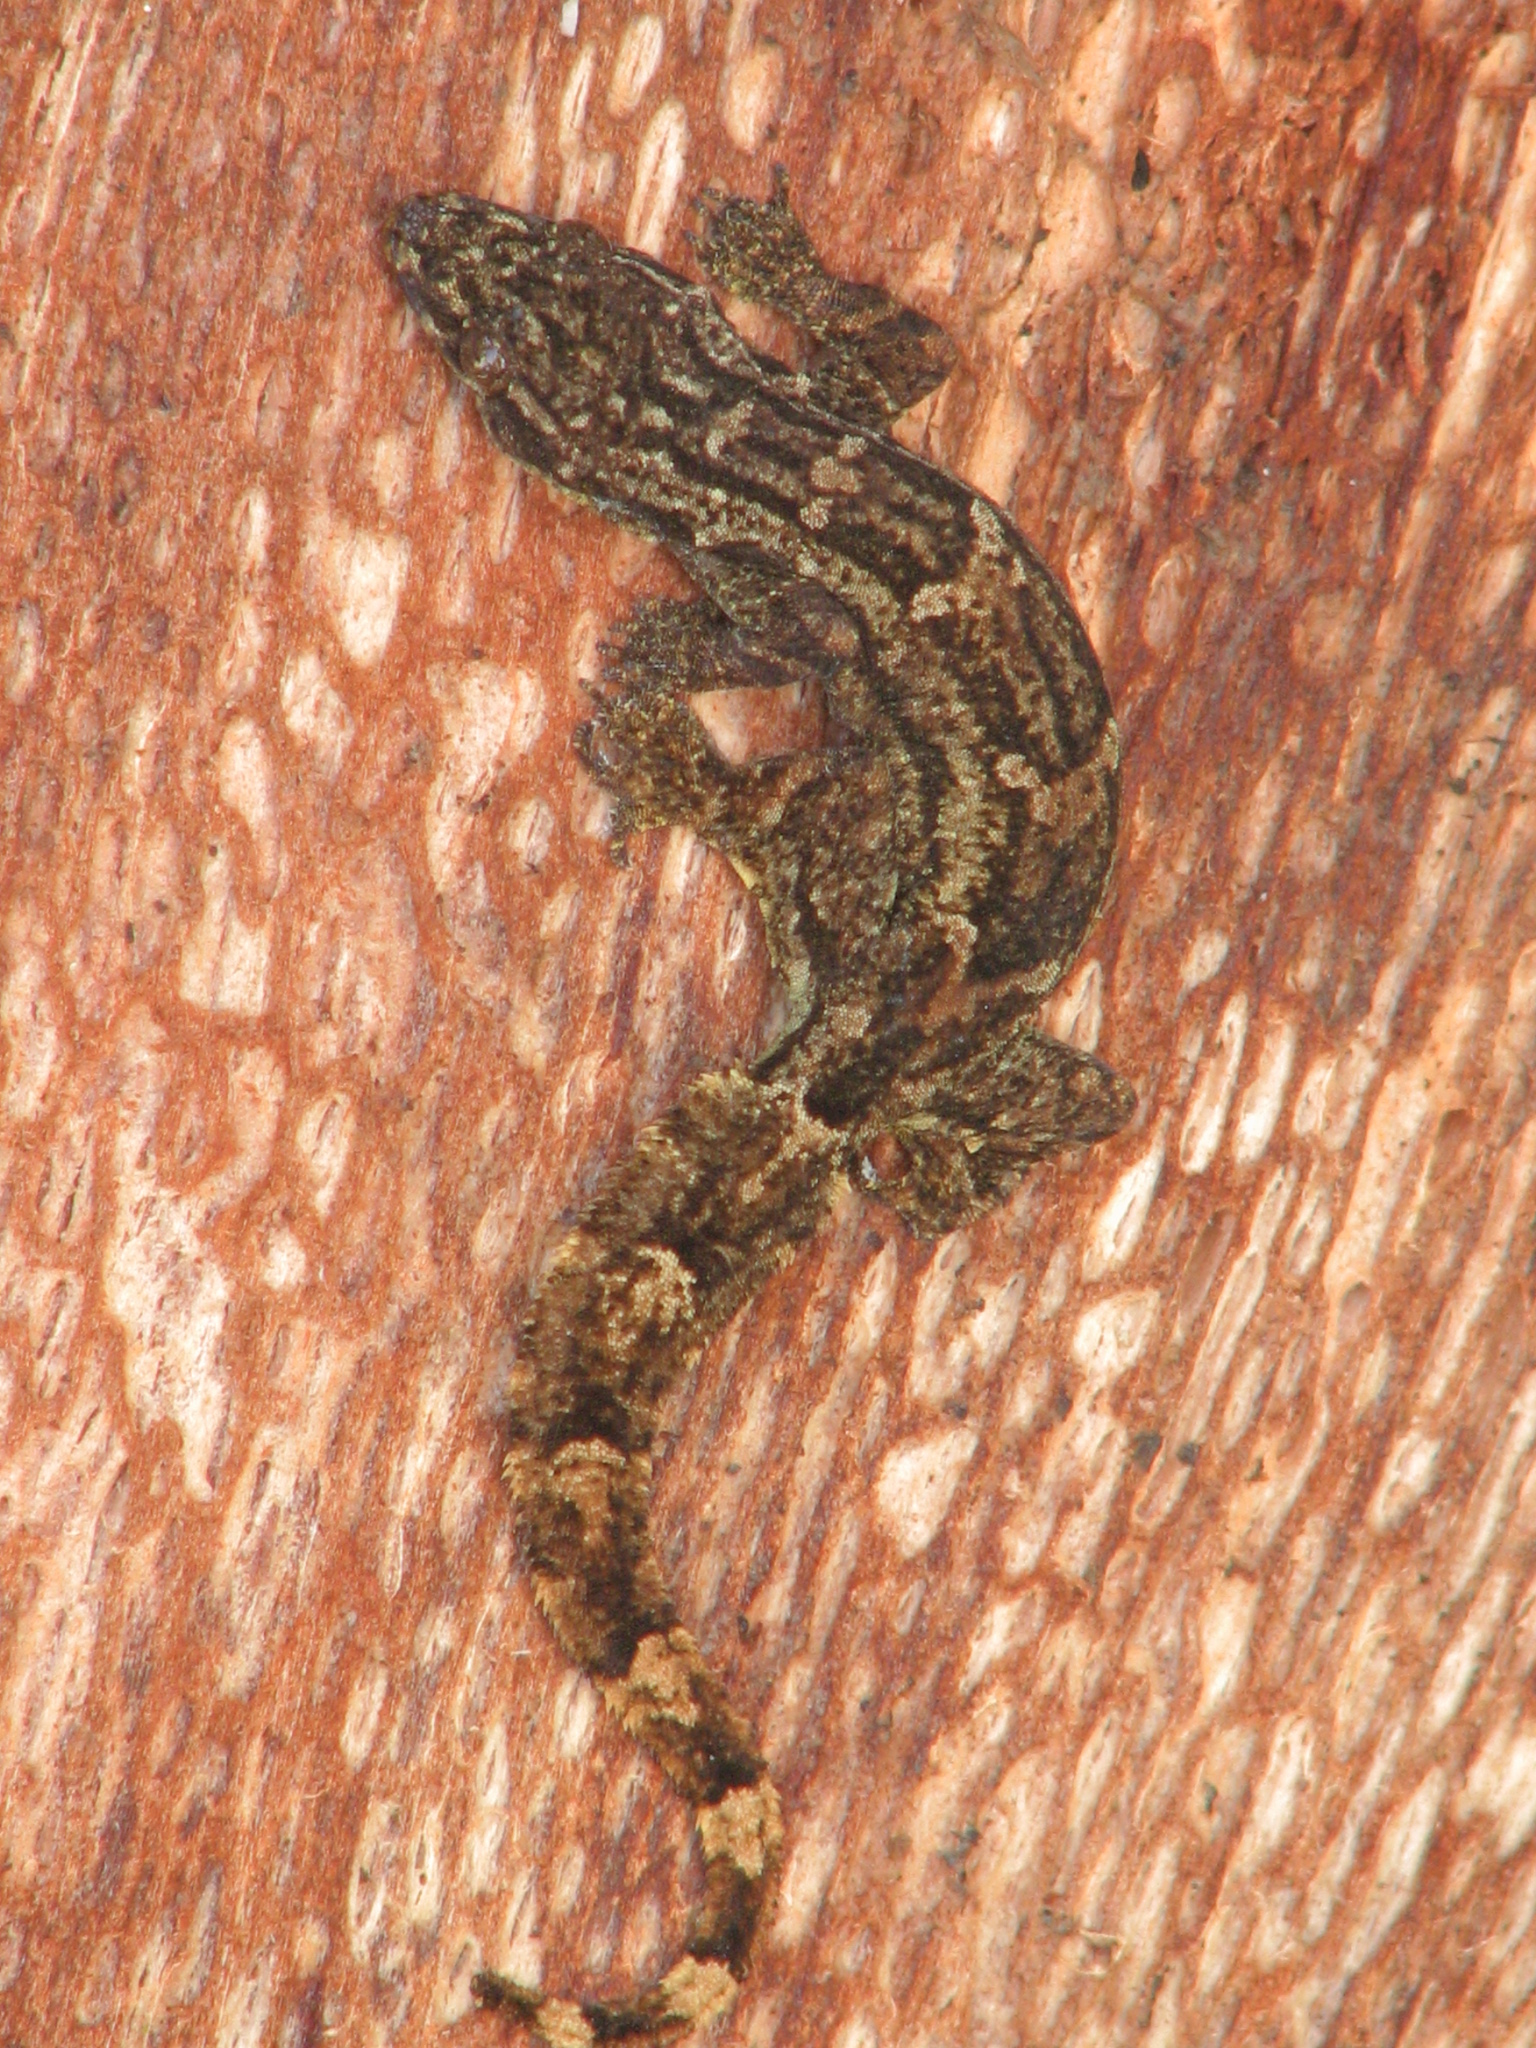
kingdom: Animalia
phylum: Chordata
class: Squamata
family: Gekkonidae
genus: Hemidactylus
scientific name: Hemidactylus platyurus
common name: Flat-tailed house gecko
